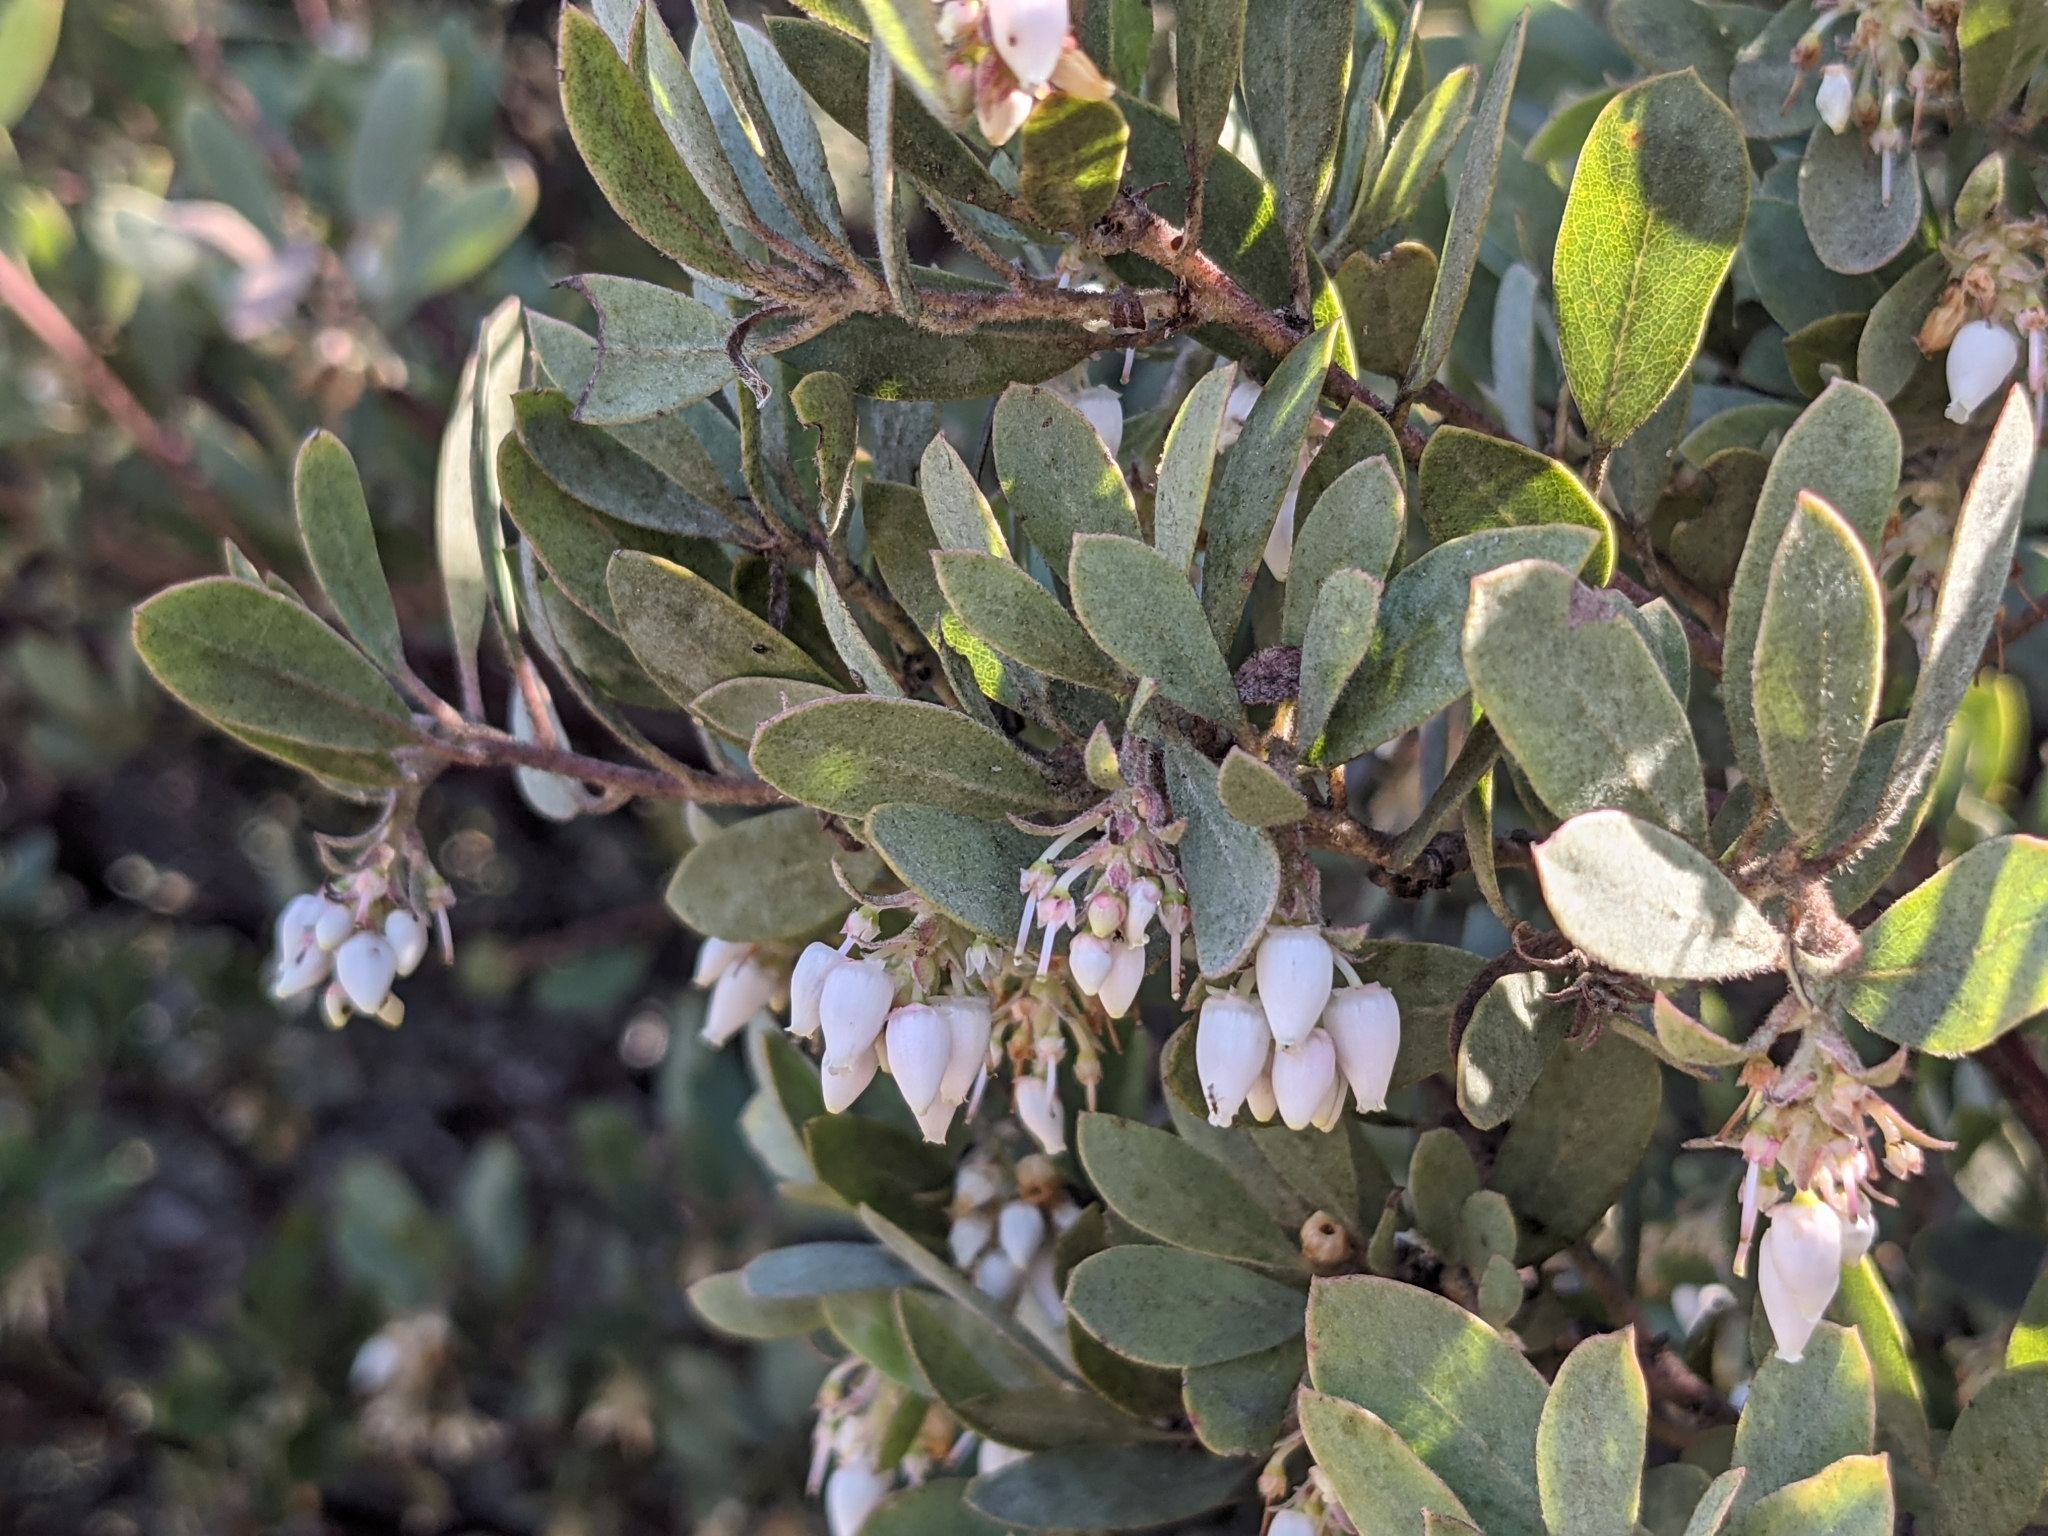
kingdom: Plantae
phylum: Tracheophyta
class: Magnoliopsida
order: Ericales
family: Ericaceae
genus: Arctostaphylos
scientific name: Arctostaphylos silvicola
